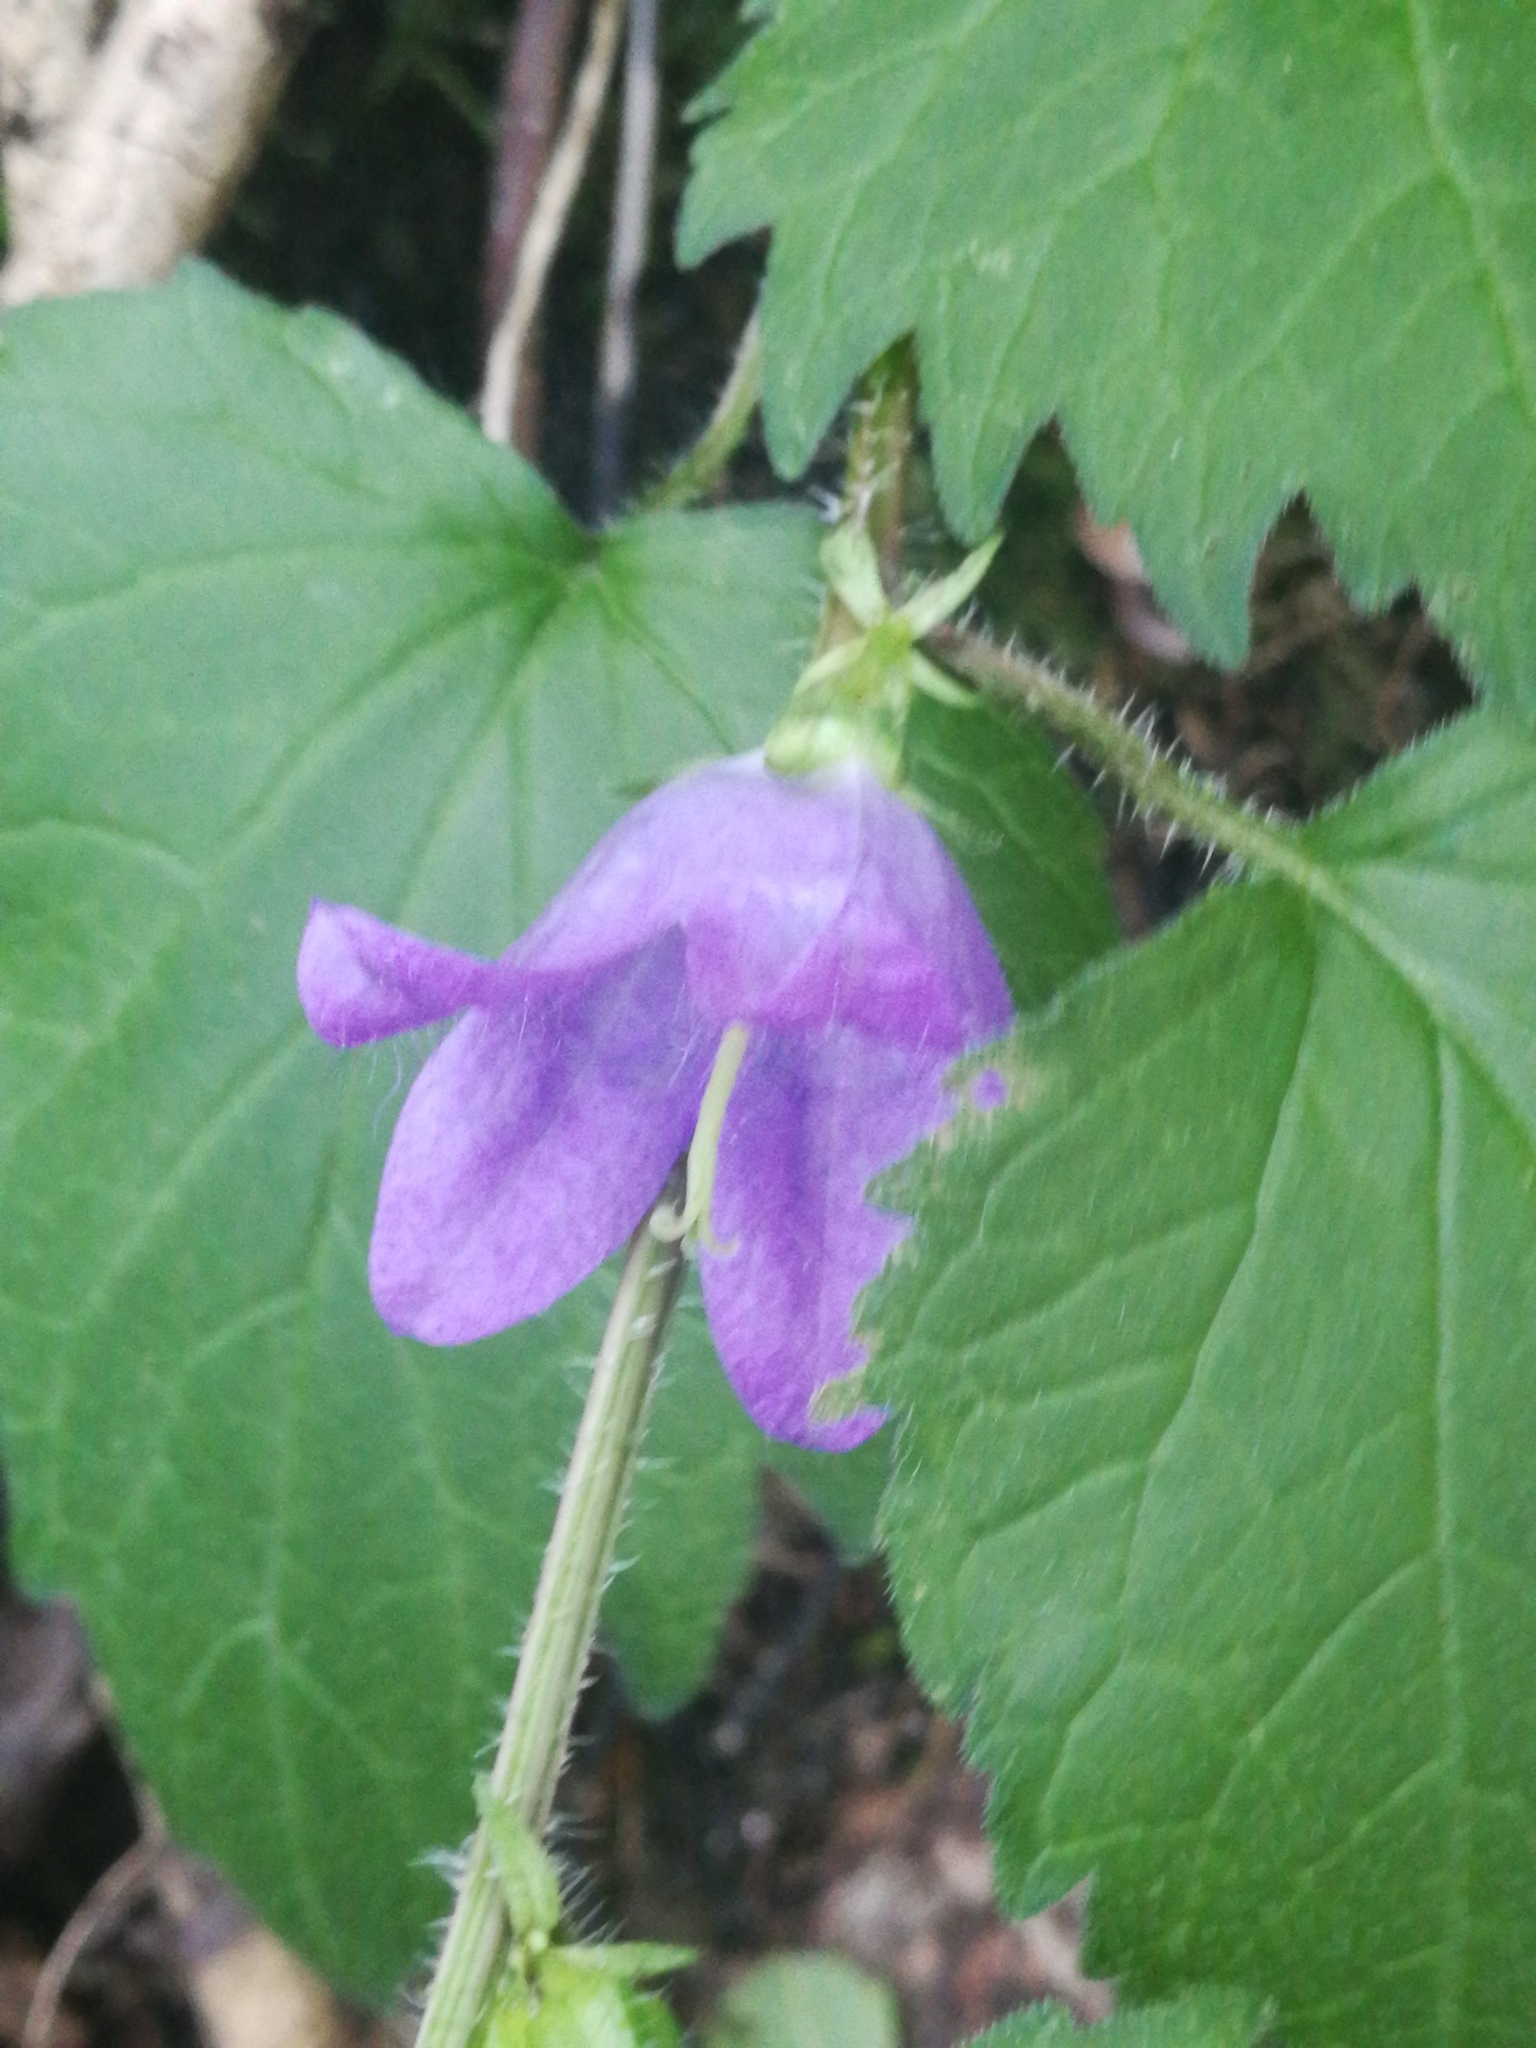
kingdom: Plantae
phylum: Tracheophyta
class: Magnoliopsida
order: Asterales
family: Campanulaceae
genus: Campanula
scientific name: Campanula trachelium
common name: Nettle-leaved bellflower
